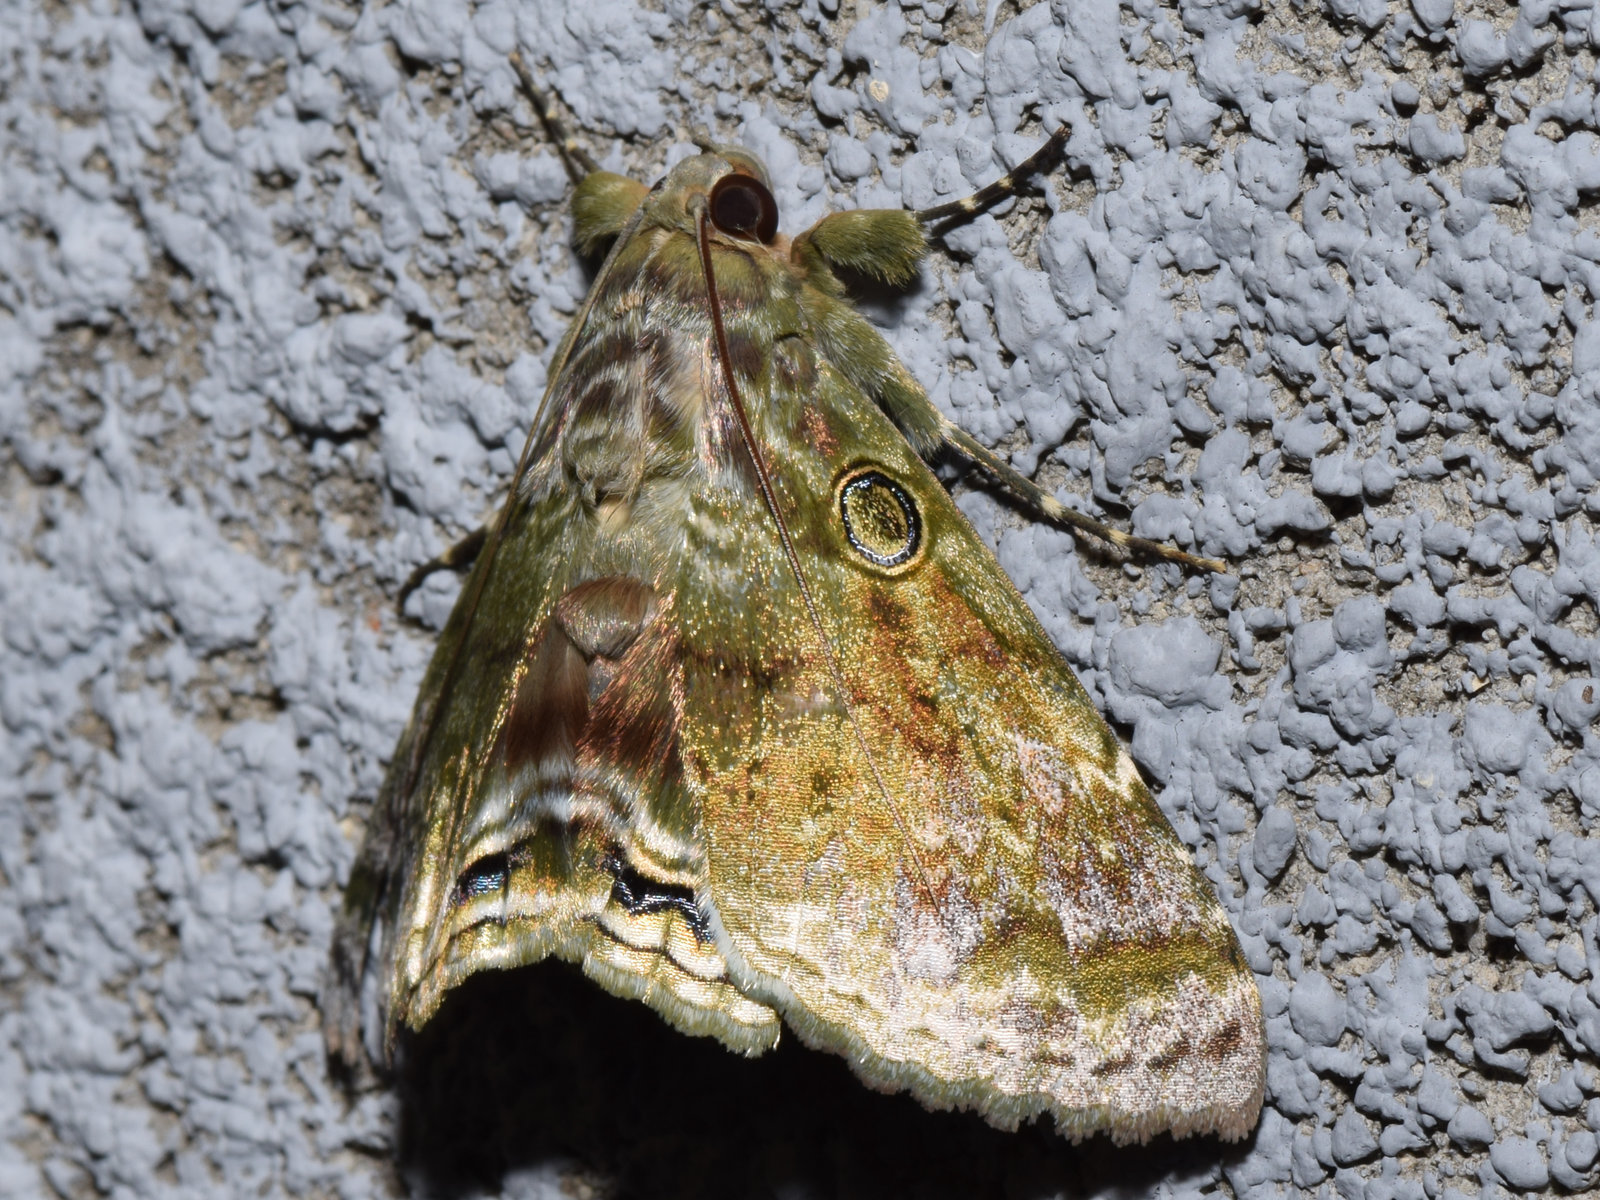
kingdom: Animalia
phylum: Arthropoda
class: Insecta
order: Lepidoptera
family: Erebidae
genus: Cyclodes
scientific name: Cyclodes omma
